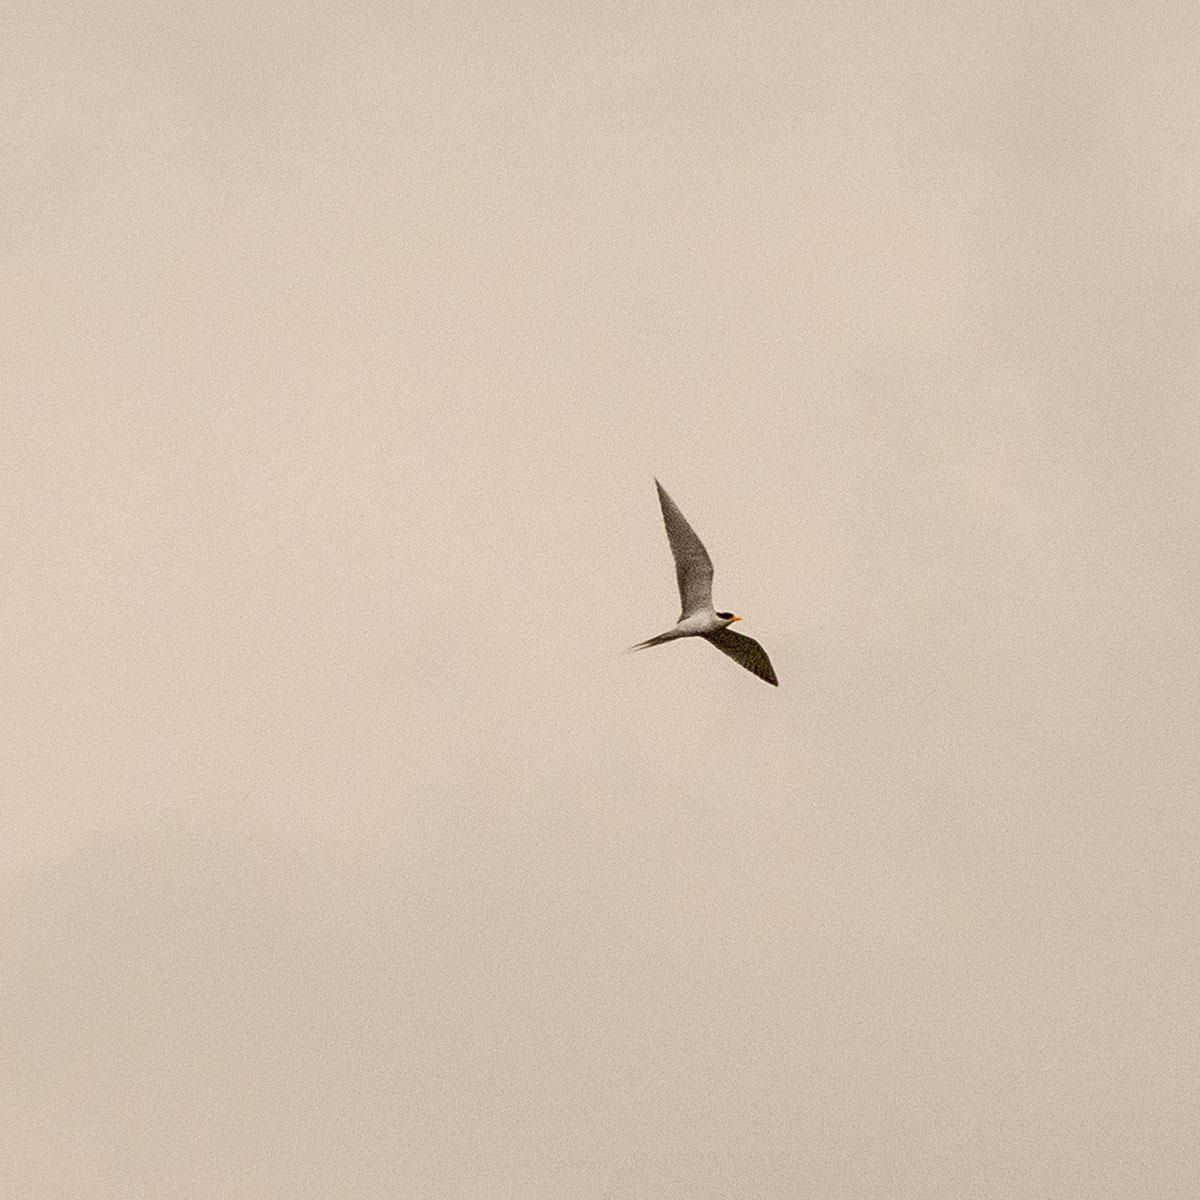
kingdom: Animalia
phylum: Chordata
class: Aves
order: Charadriiformes
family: Laridae
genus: Sterna
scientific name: Sterna aurantia
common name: River tern
